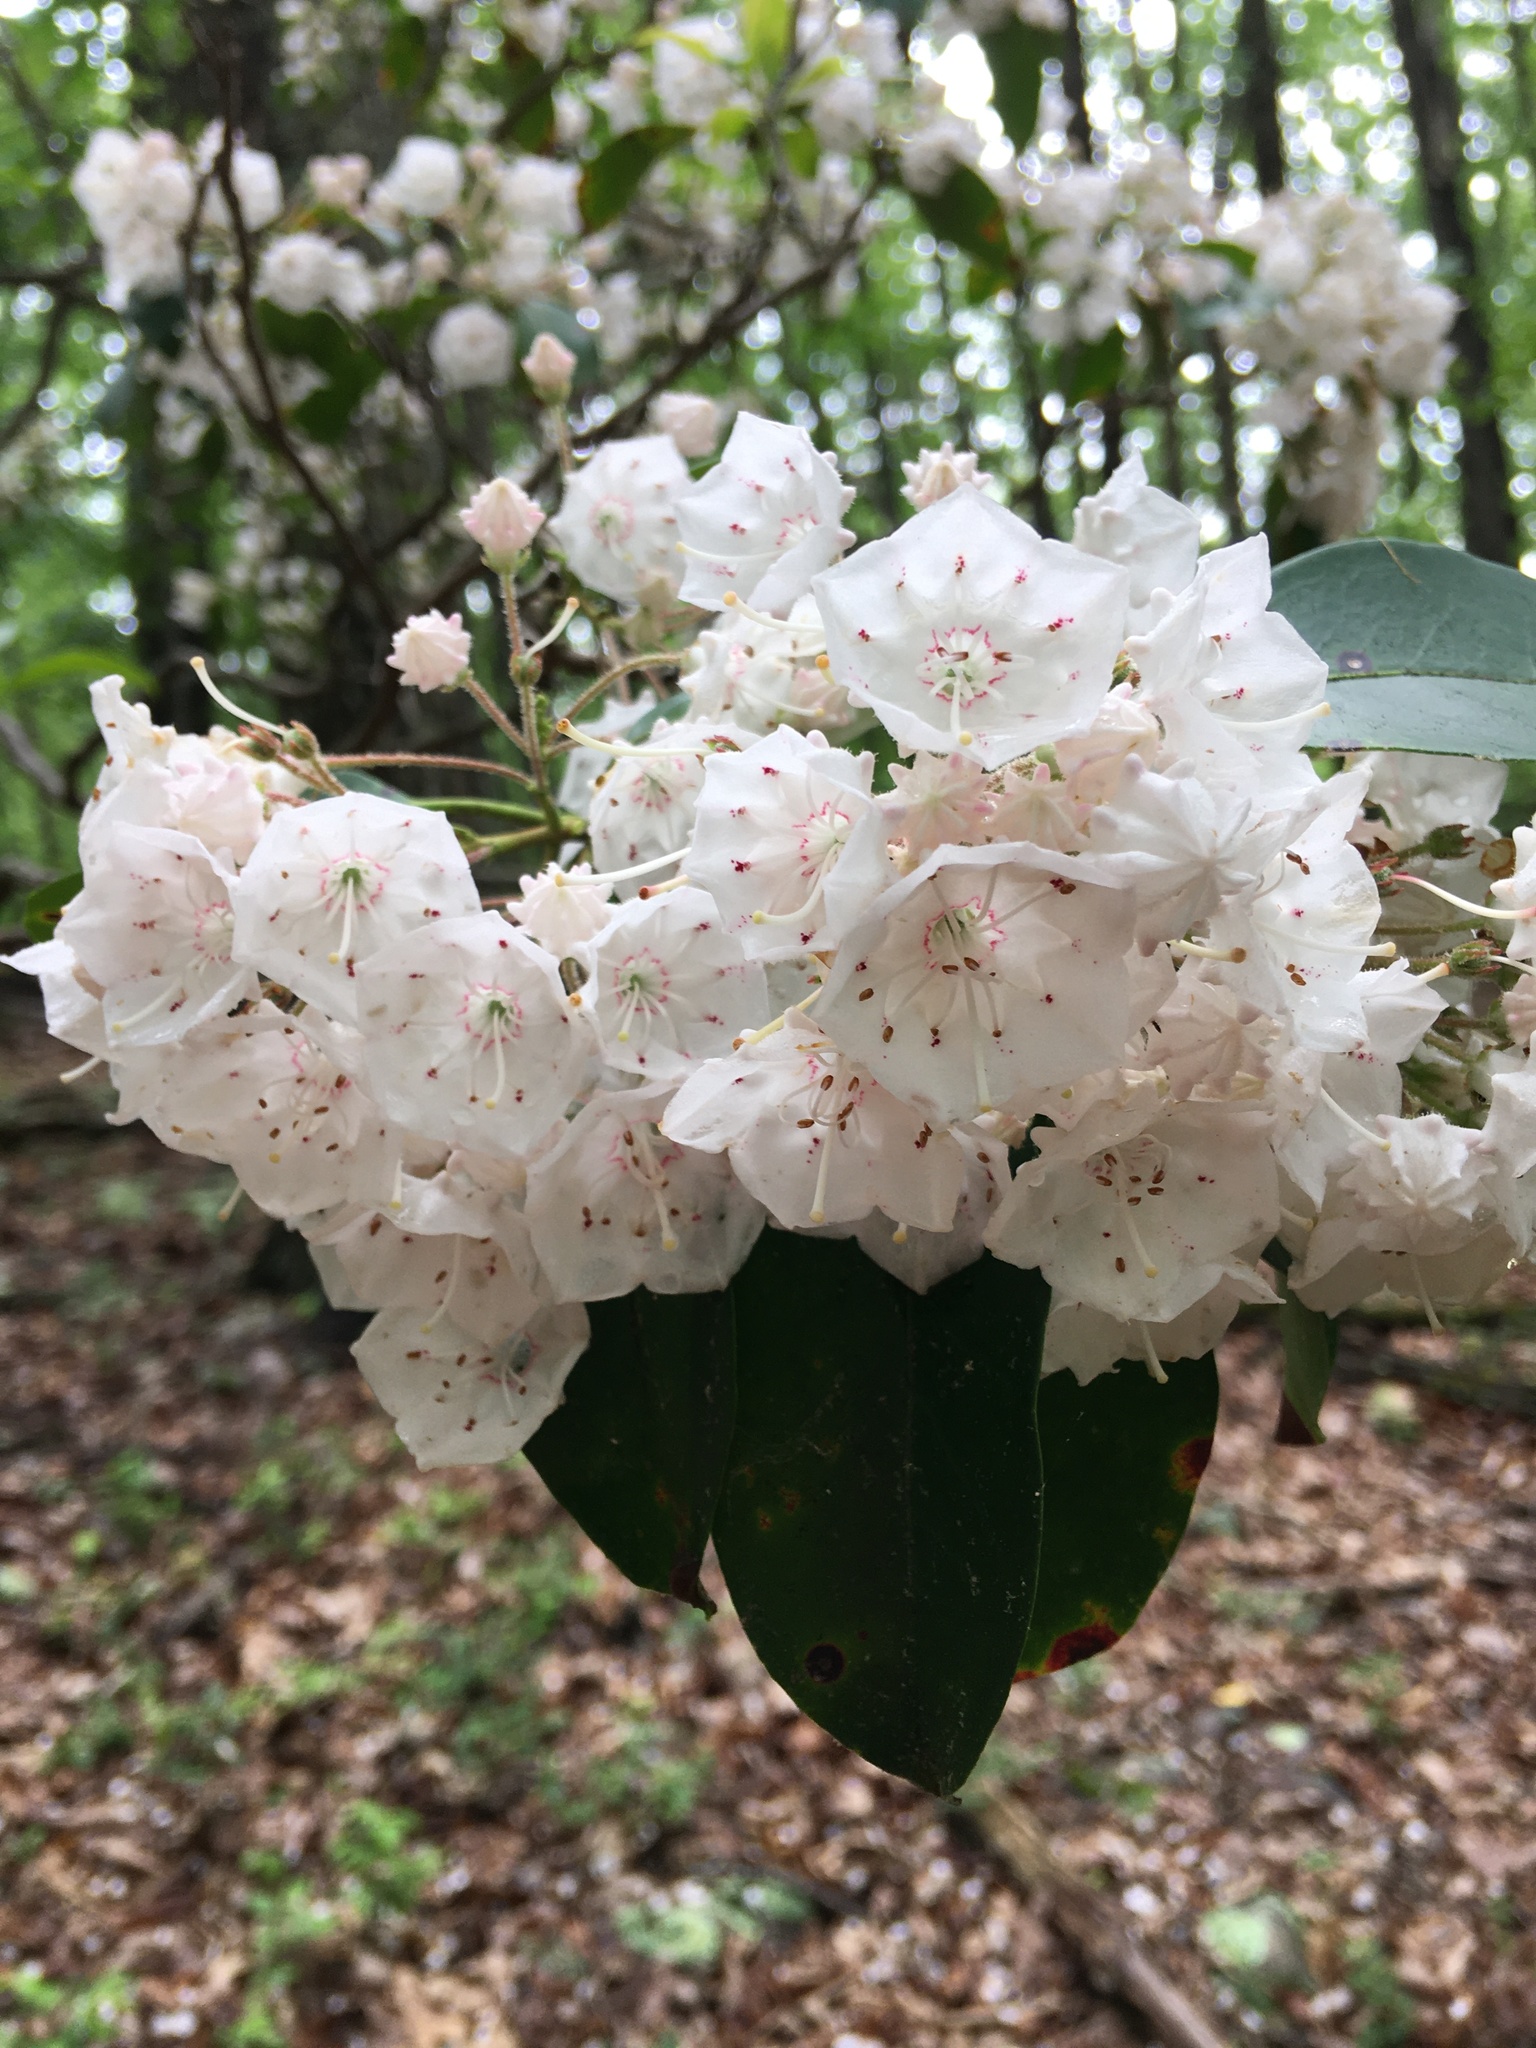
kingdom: Plantae
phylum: Tracheophyta
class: Magnoliopsida
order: Ericales
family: Ericaceae
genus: Kalmia
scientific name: Kalmia latifolia
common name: Mountain-laurel
